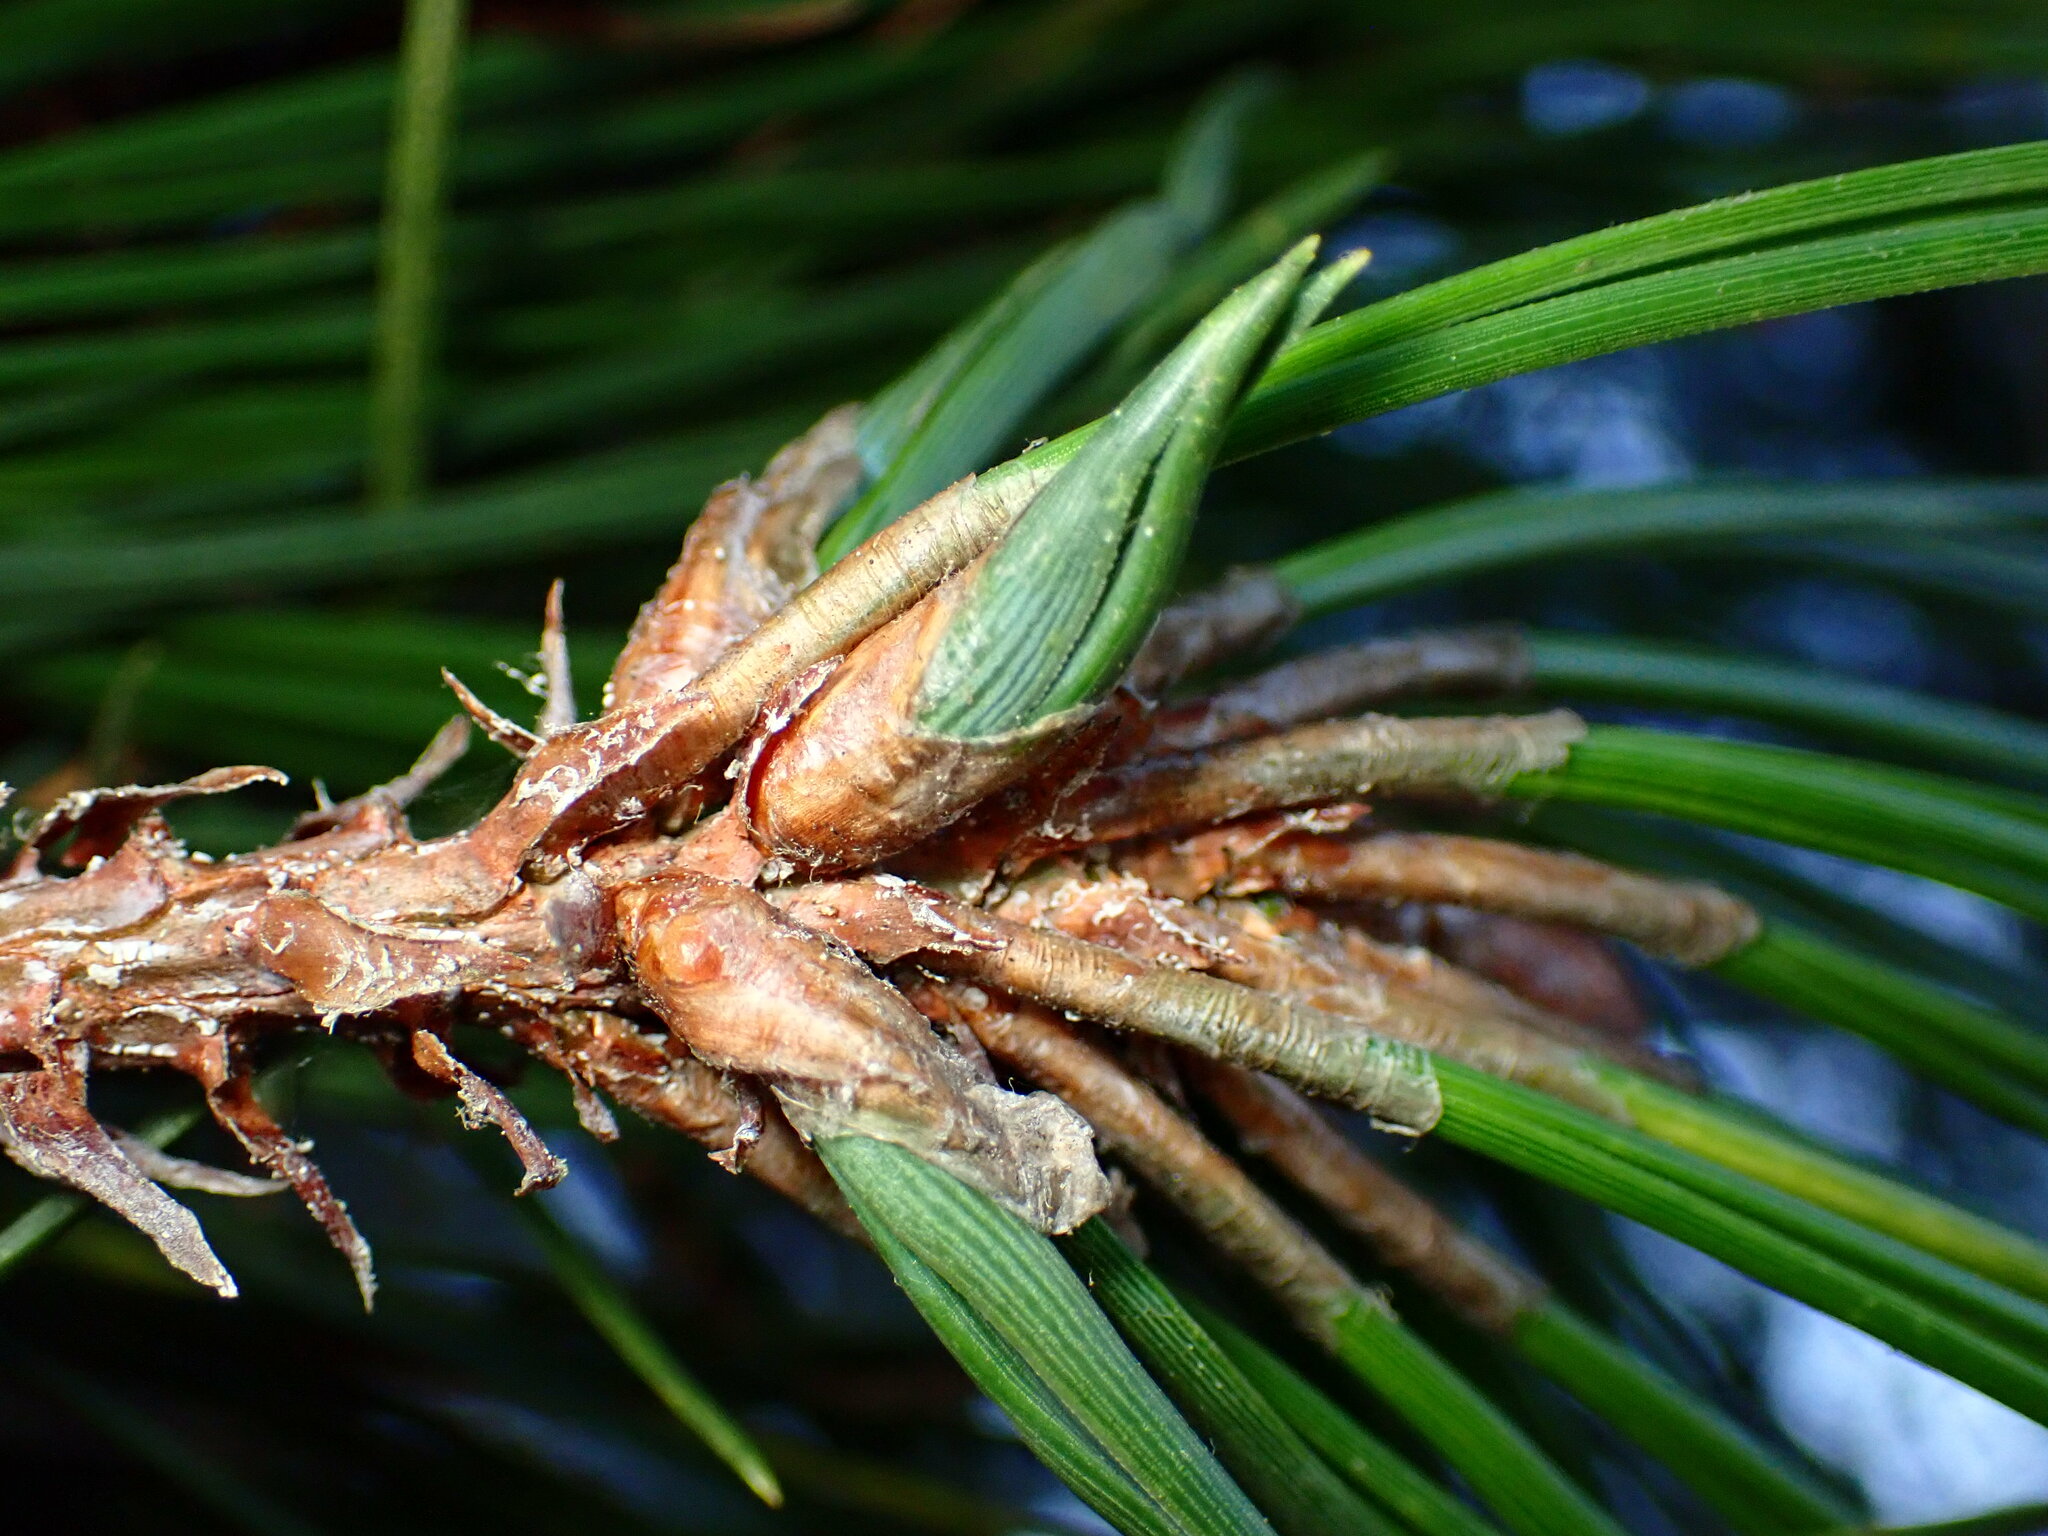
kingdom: Animalia
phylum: Arthropoda
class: Insecta
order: Diptera
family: Cecidomyiidae
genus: Thecodiplosis
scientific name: Thecodiplosis piniradiatae
